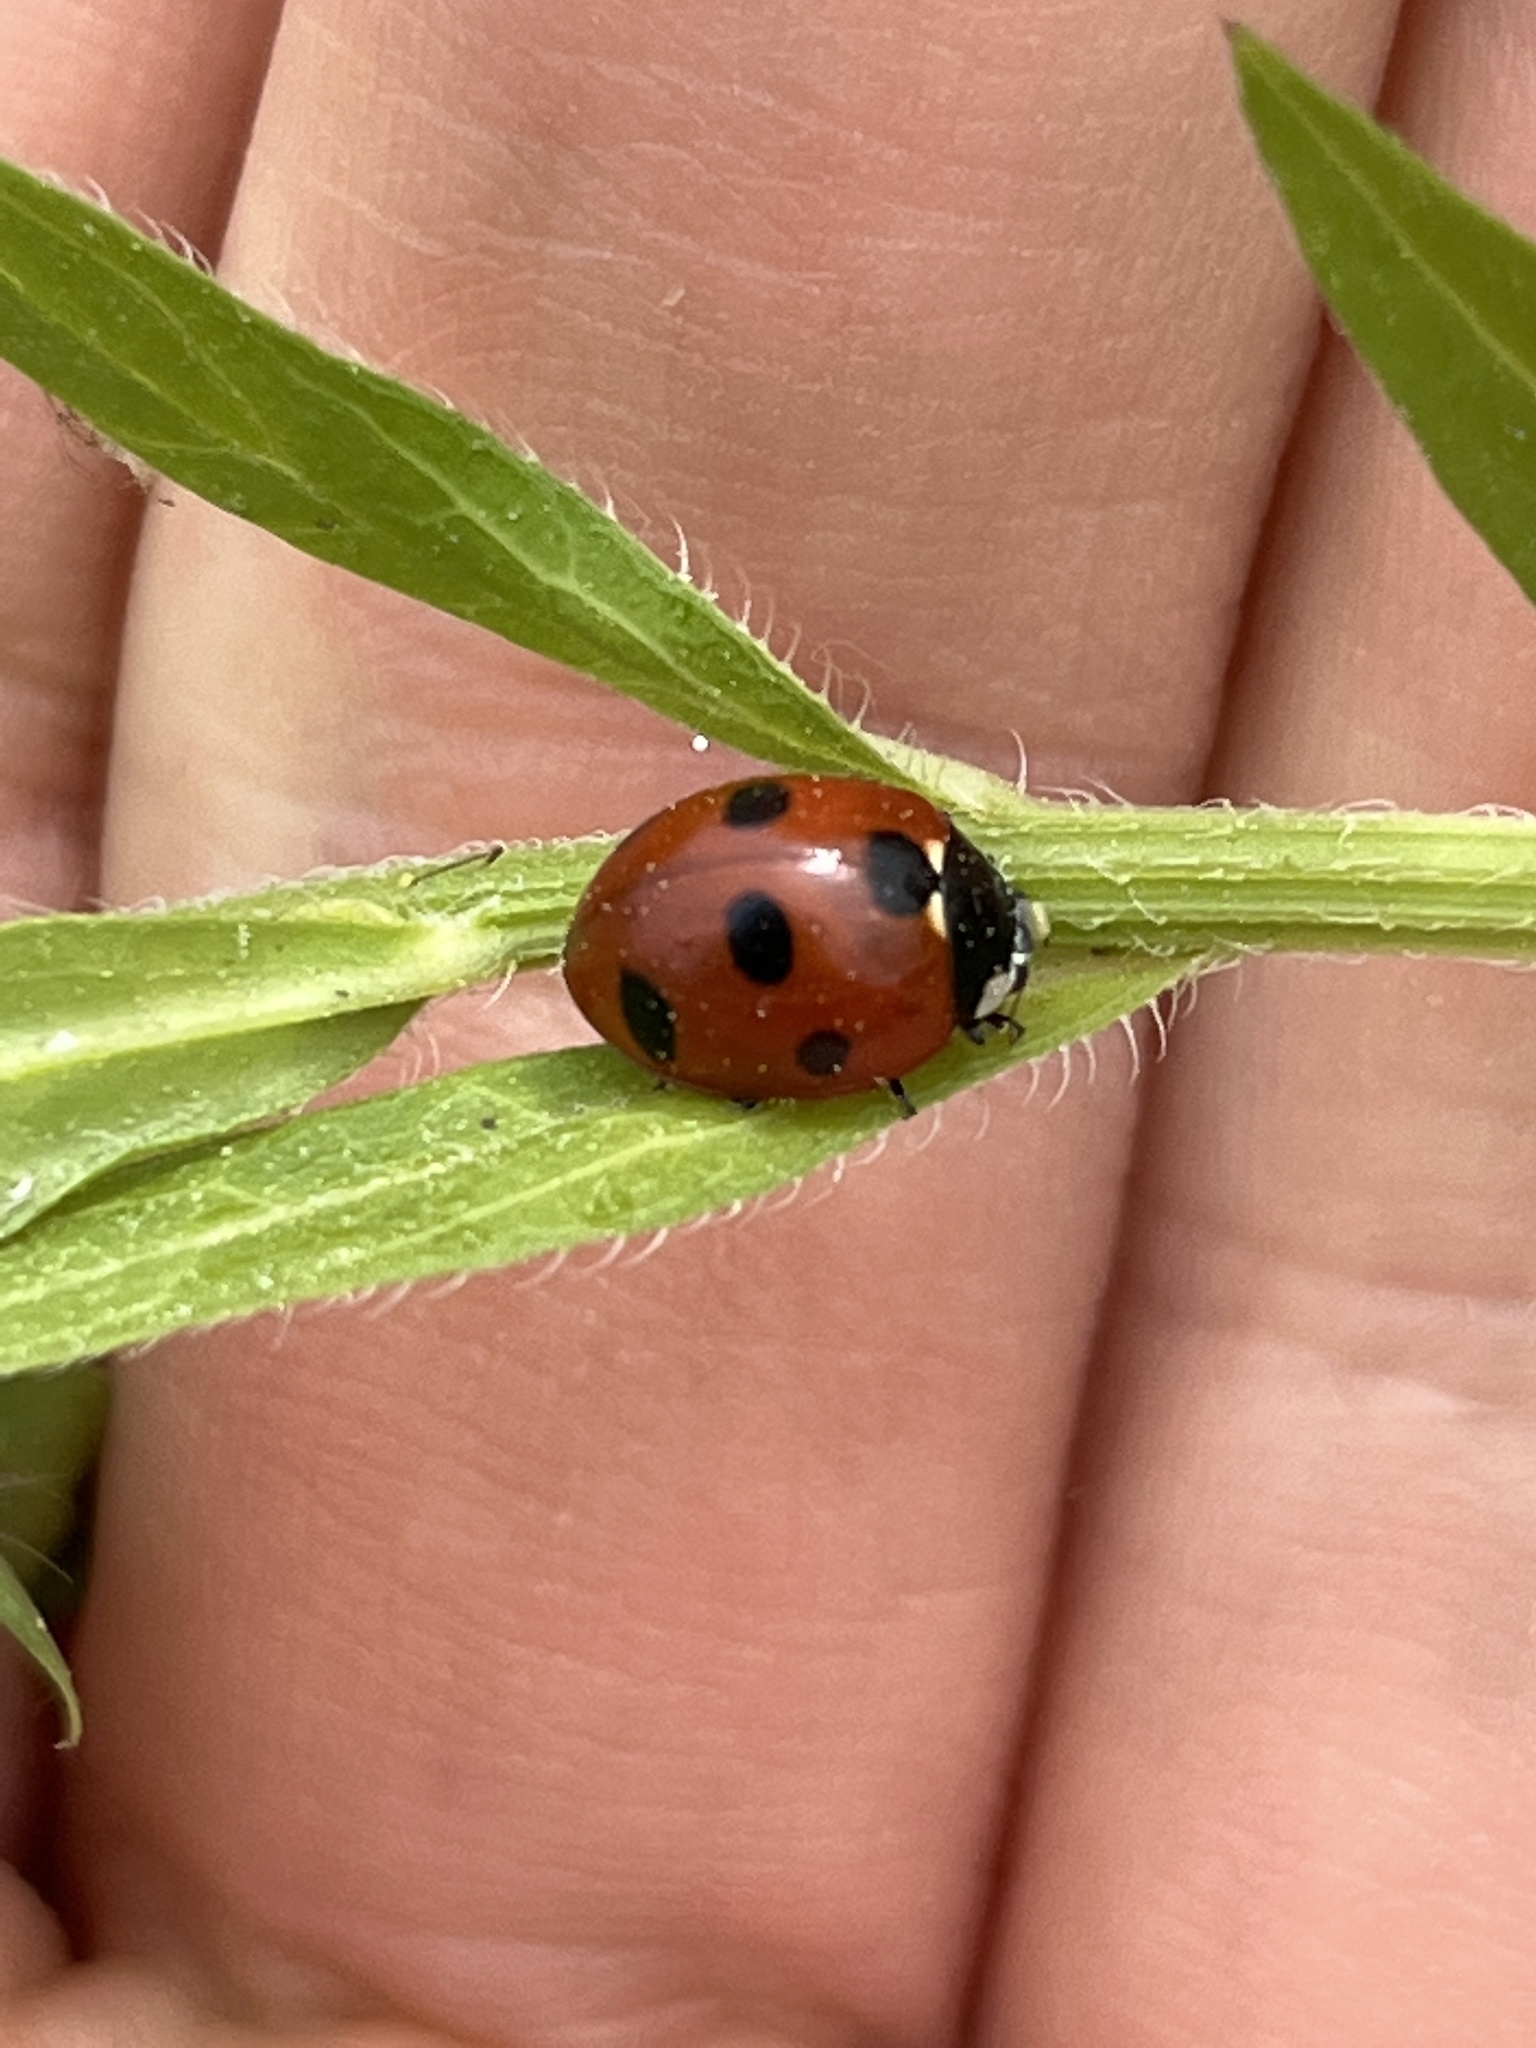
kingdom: Animalia
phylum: Arthropoda
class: Insecta
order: Coleoptera
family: Coccinellidae
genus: Coccinella
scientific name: Coccinella septempunctata
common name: Sevenspotted lady beetle
